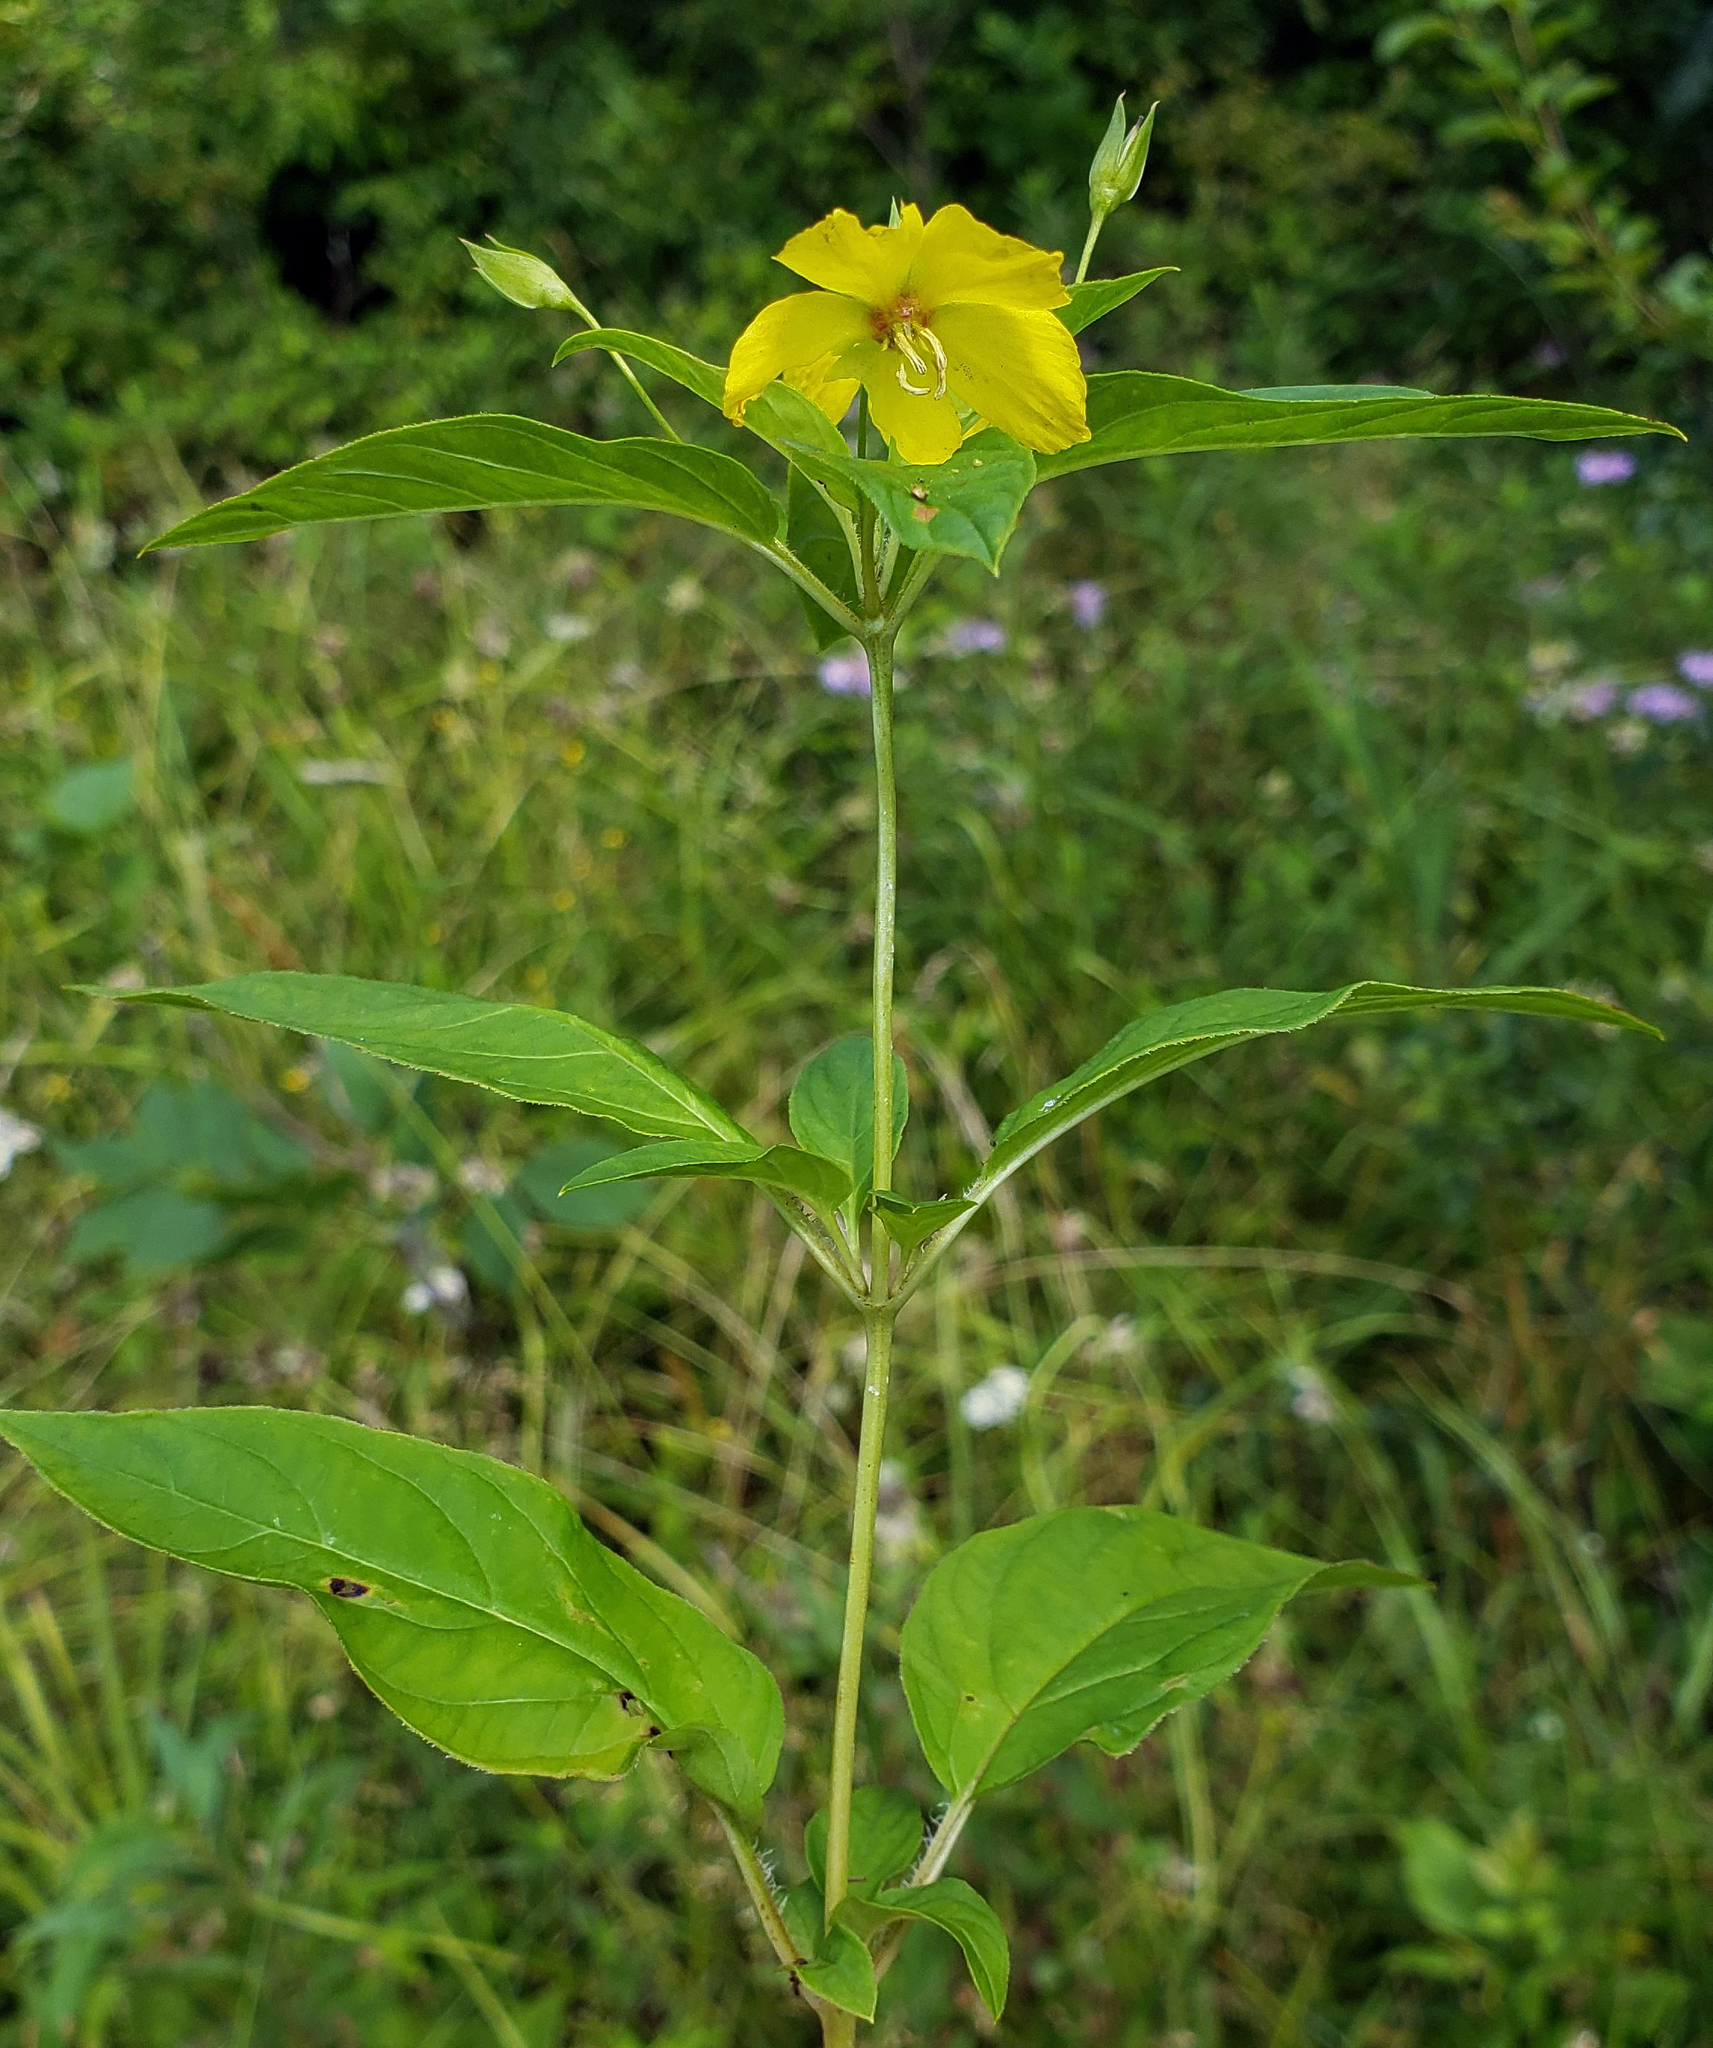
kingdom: Plantae
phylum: Tracheophyta
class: Magnoliopsida
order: Ericales
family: Primulaceae
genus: Lysimachia
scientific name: Lysimachia ciliata
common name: Fringed loosestrife
